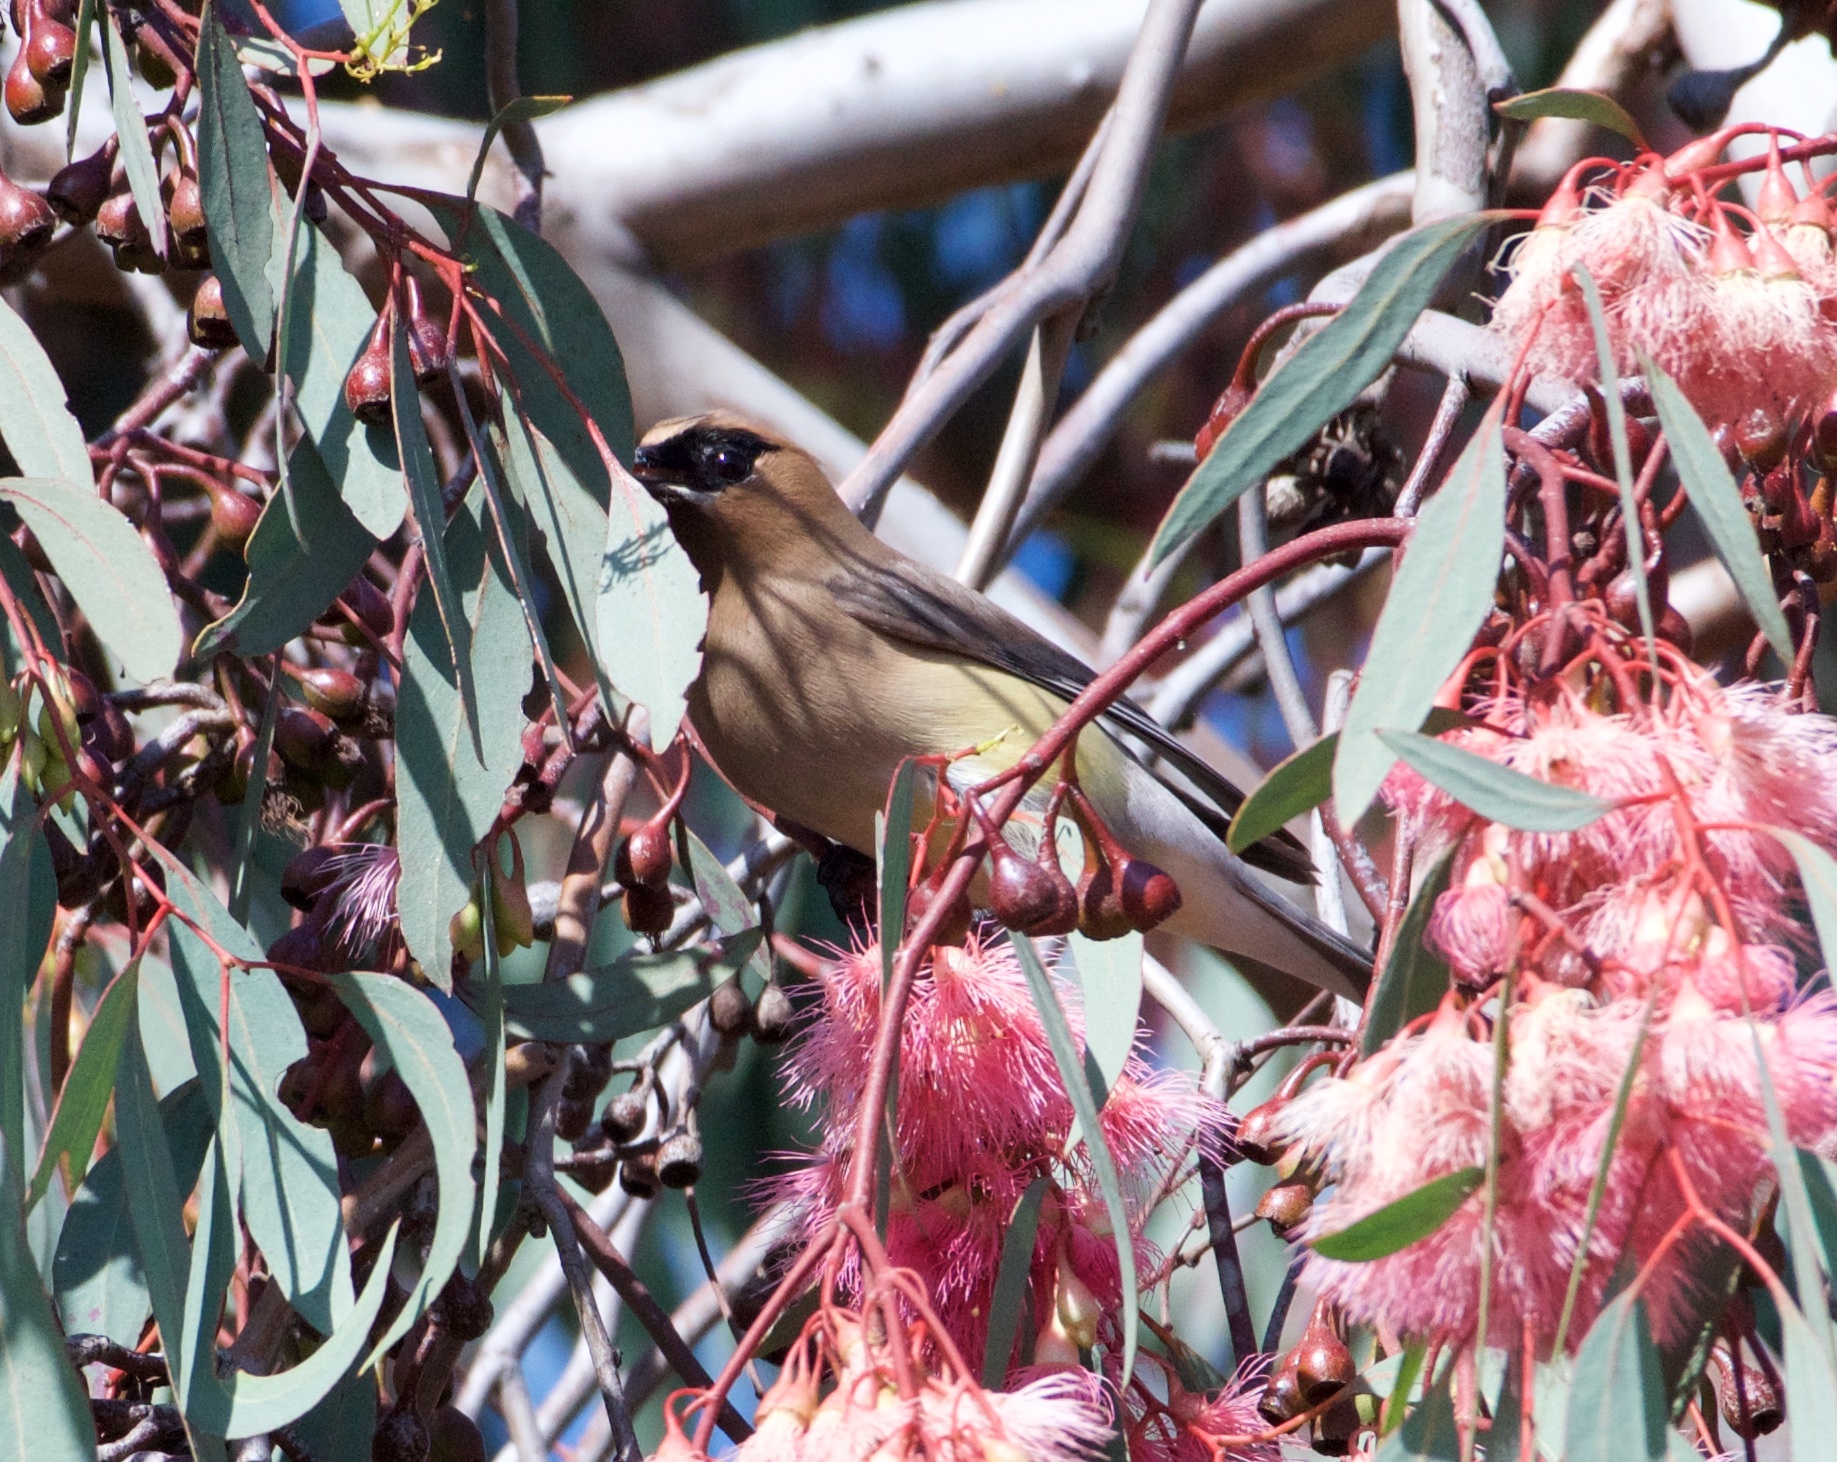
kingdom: Animalia
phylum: Chordata
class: Aves
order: Passeriformes
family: Bombycillidae
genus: Bombycilla
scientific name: Bombycilla cedrorum
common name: Cedar waxwing
